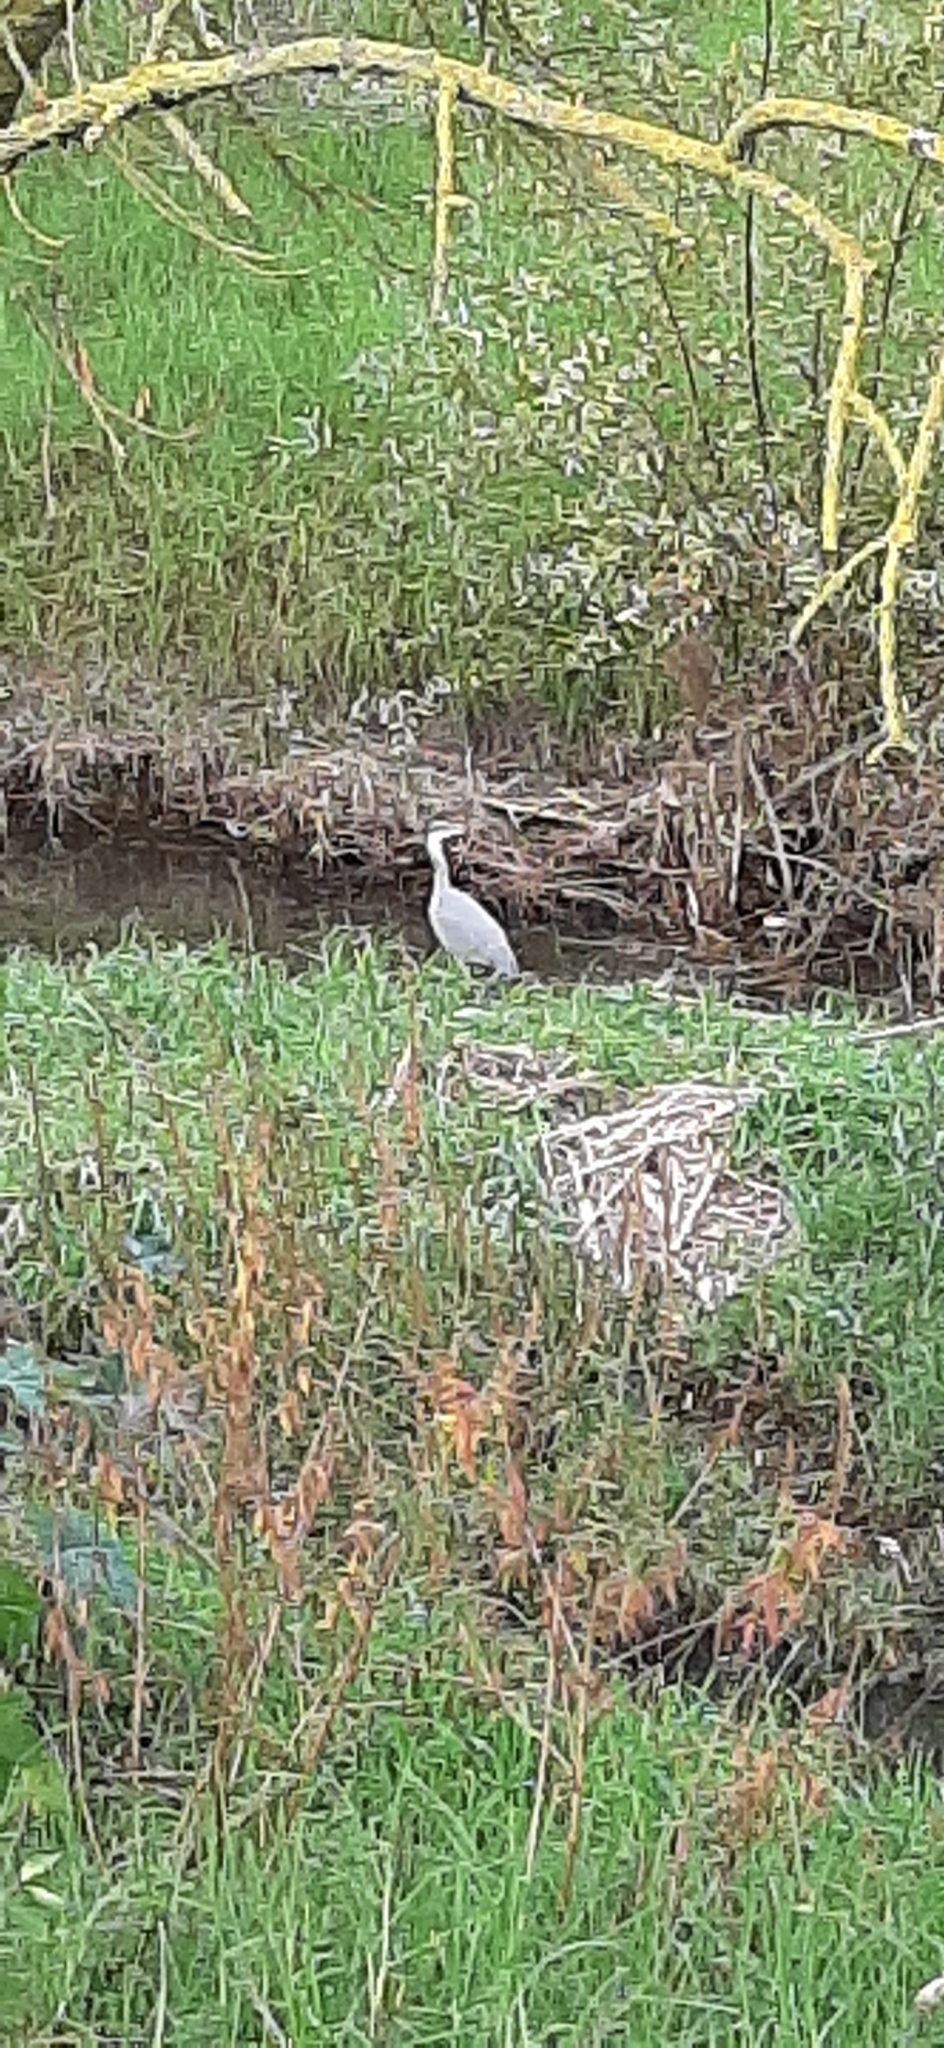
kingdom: Animalia
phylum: Chordata
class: Aves
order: Pelecaniformes
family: Ardeidae
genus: Ardea
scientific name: Ardea cinerea
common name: Grey heron
